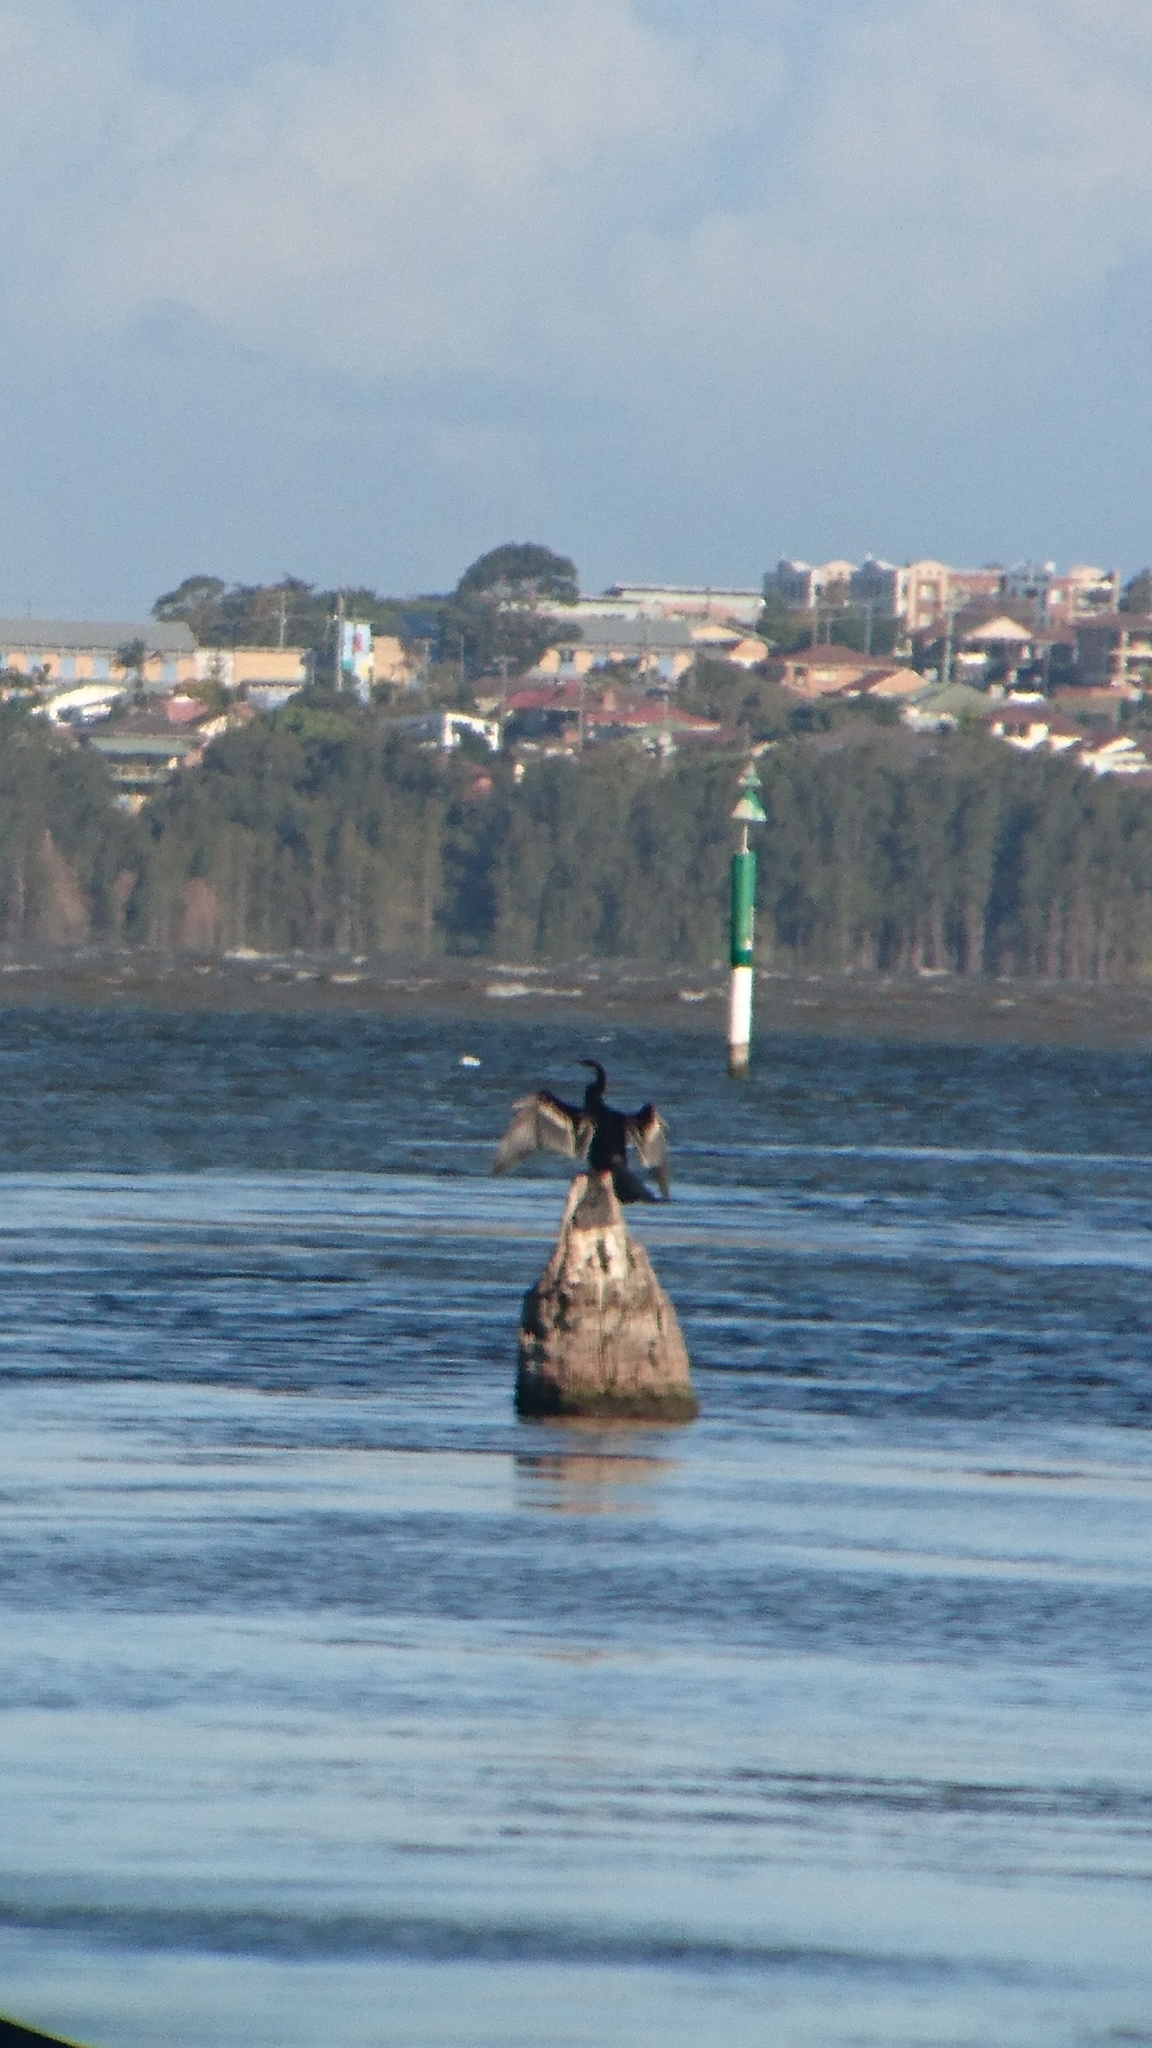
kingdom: Animalia
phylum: Chordata
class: Aves
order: Suliformes
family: Anhingidae
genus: Anhinga
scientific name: Anhinga novaehollandiae
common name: Australasian darter
